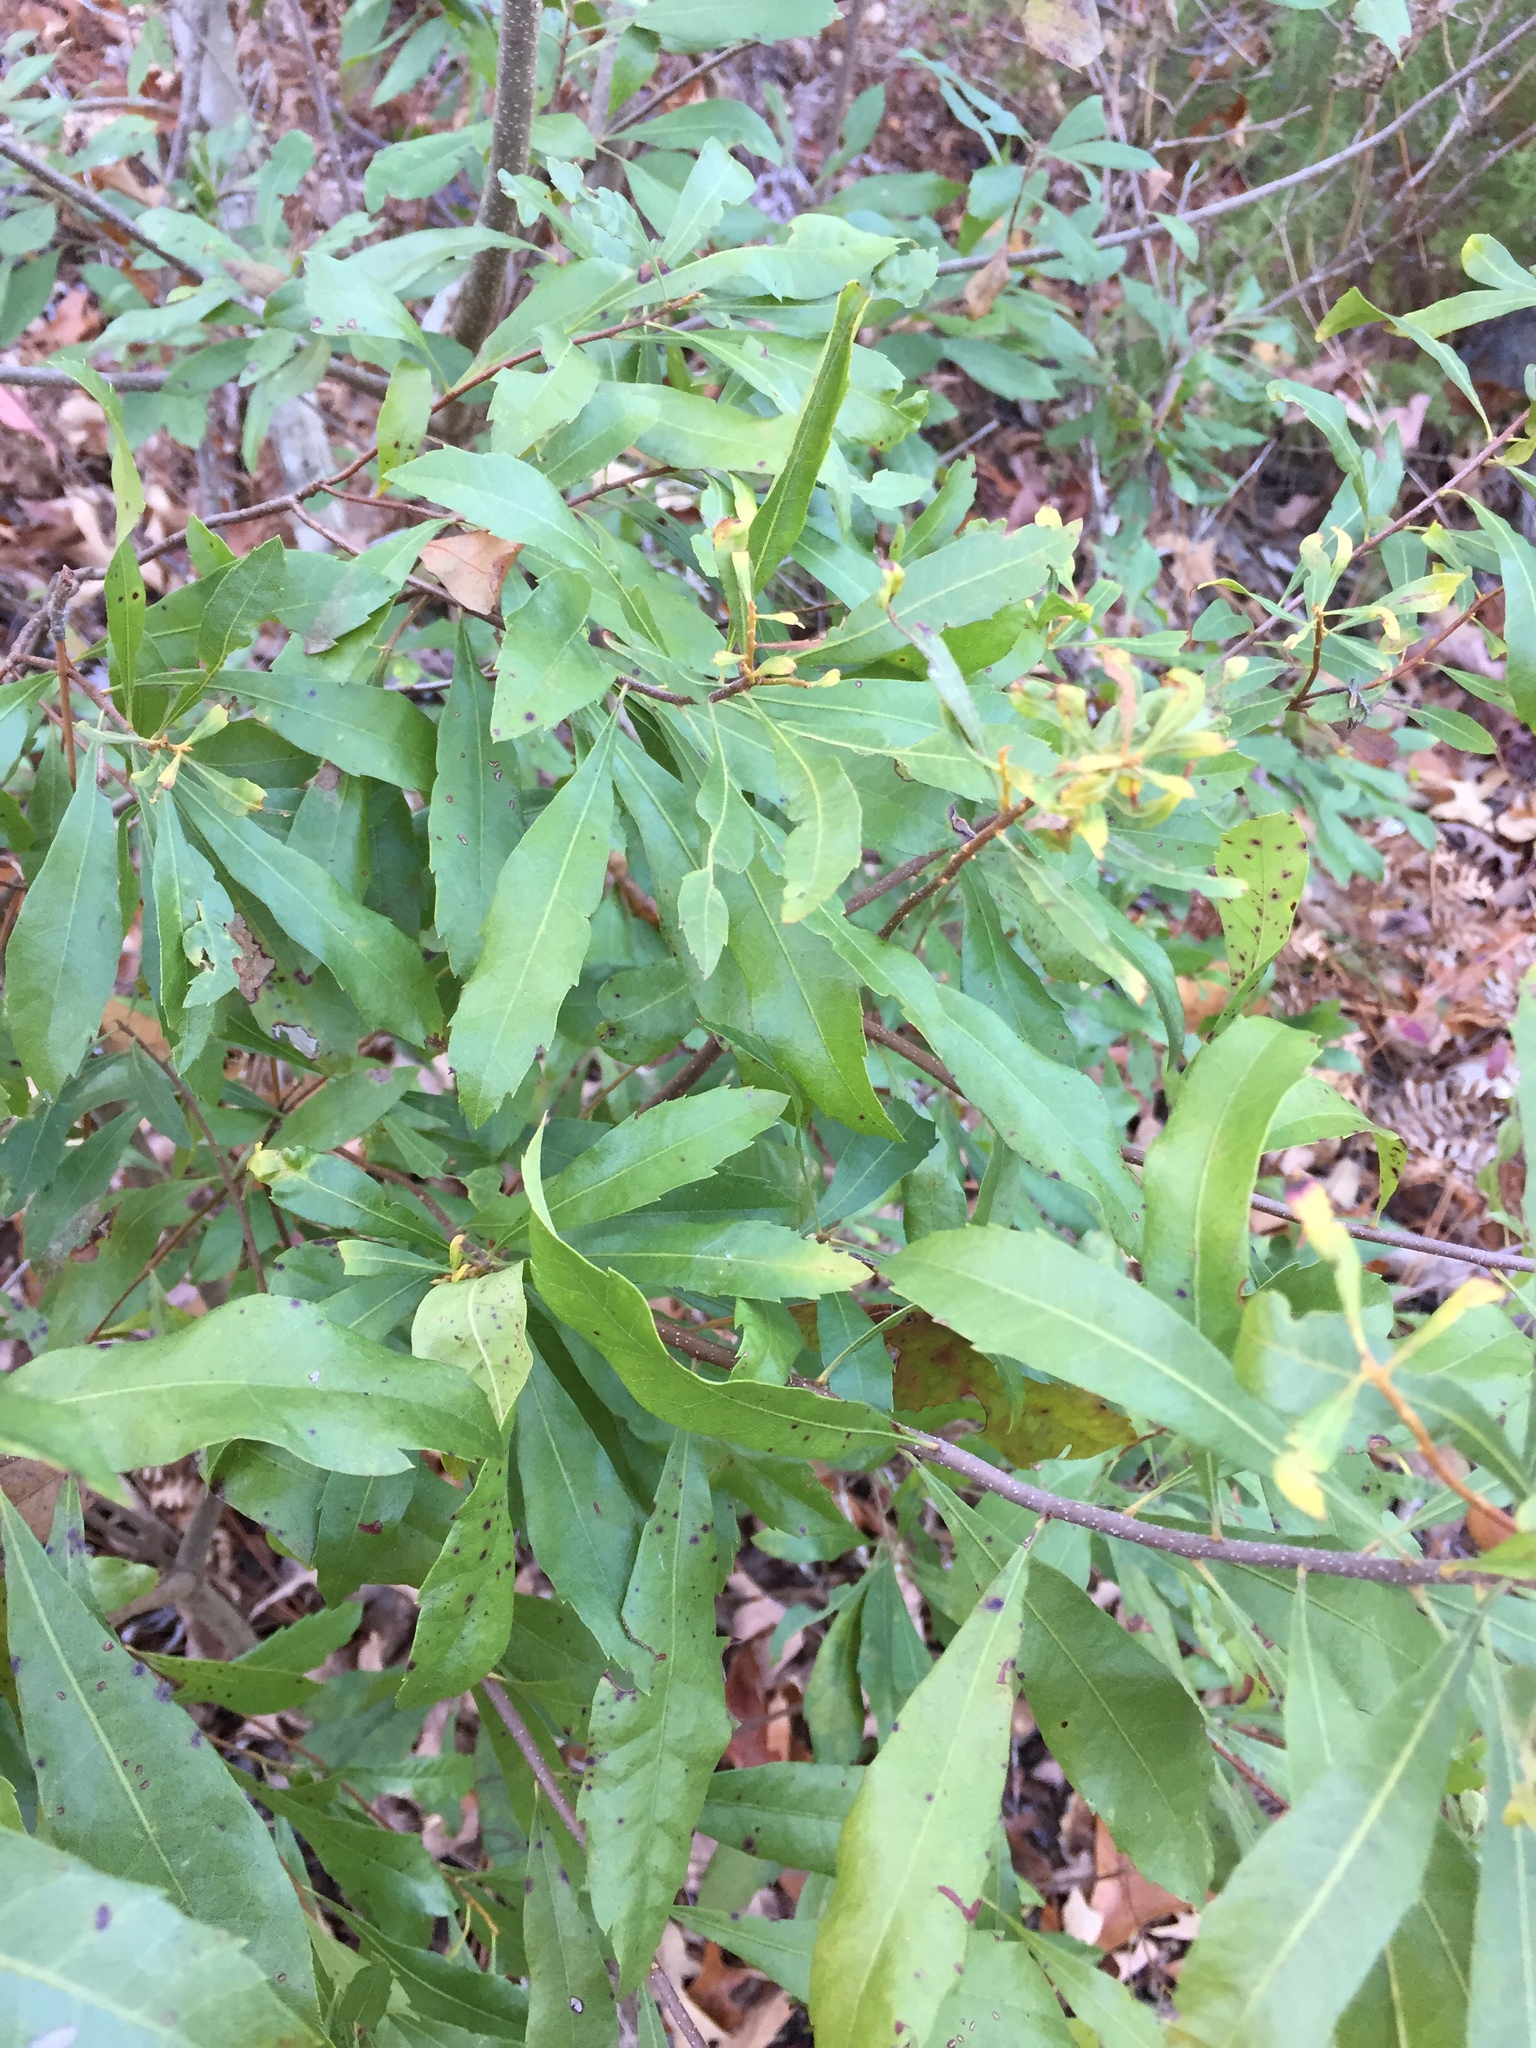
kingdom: Plantae
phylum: Tracheophyta
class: Magnoliopsida
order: Fagales
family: Myricaceae
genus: Morella
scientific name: Morella cerifera
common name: Wax myrtle
